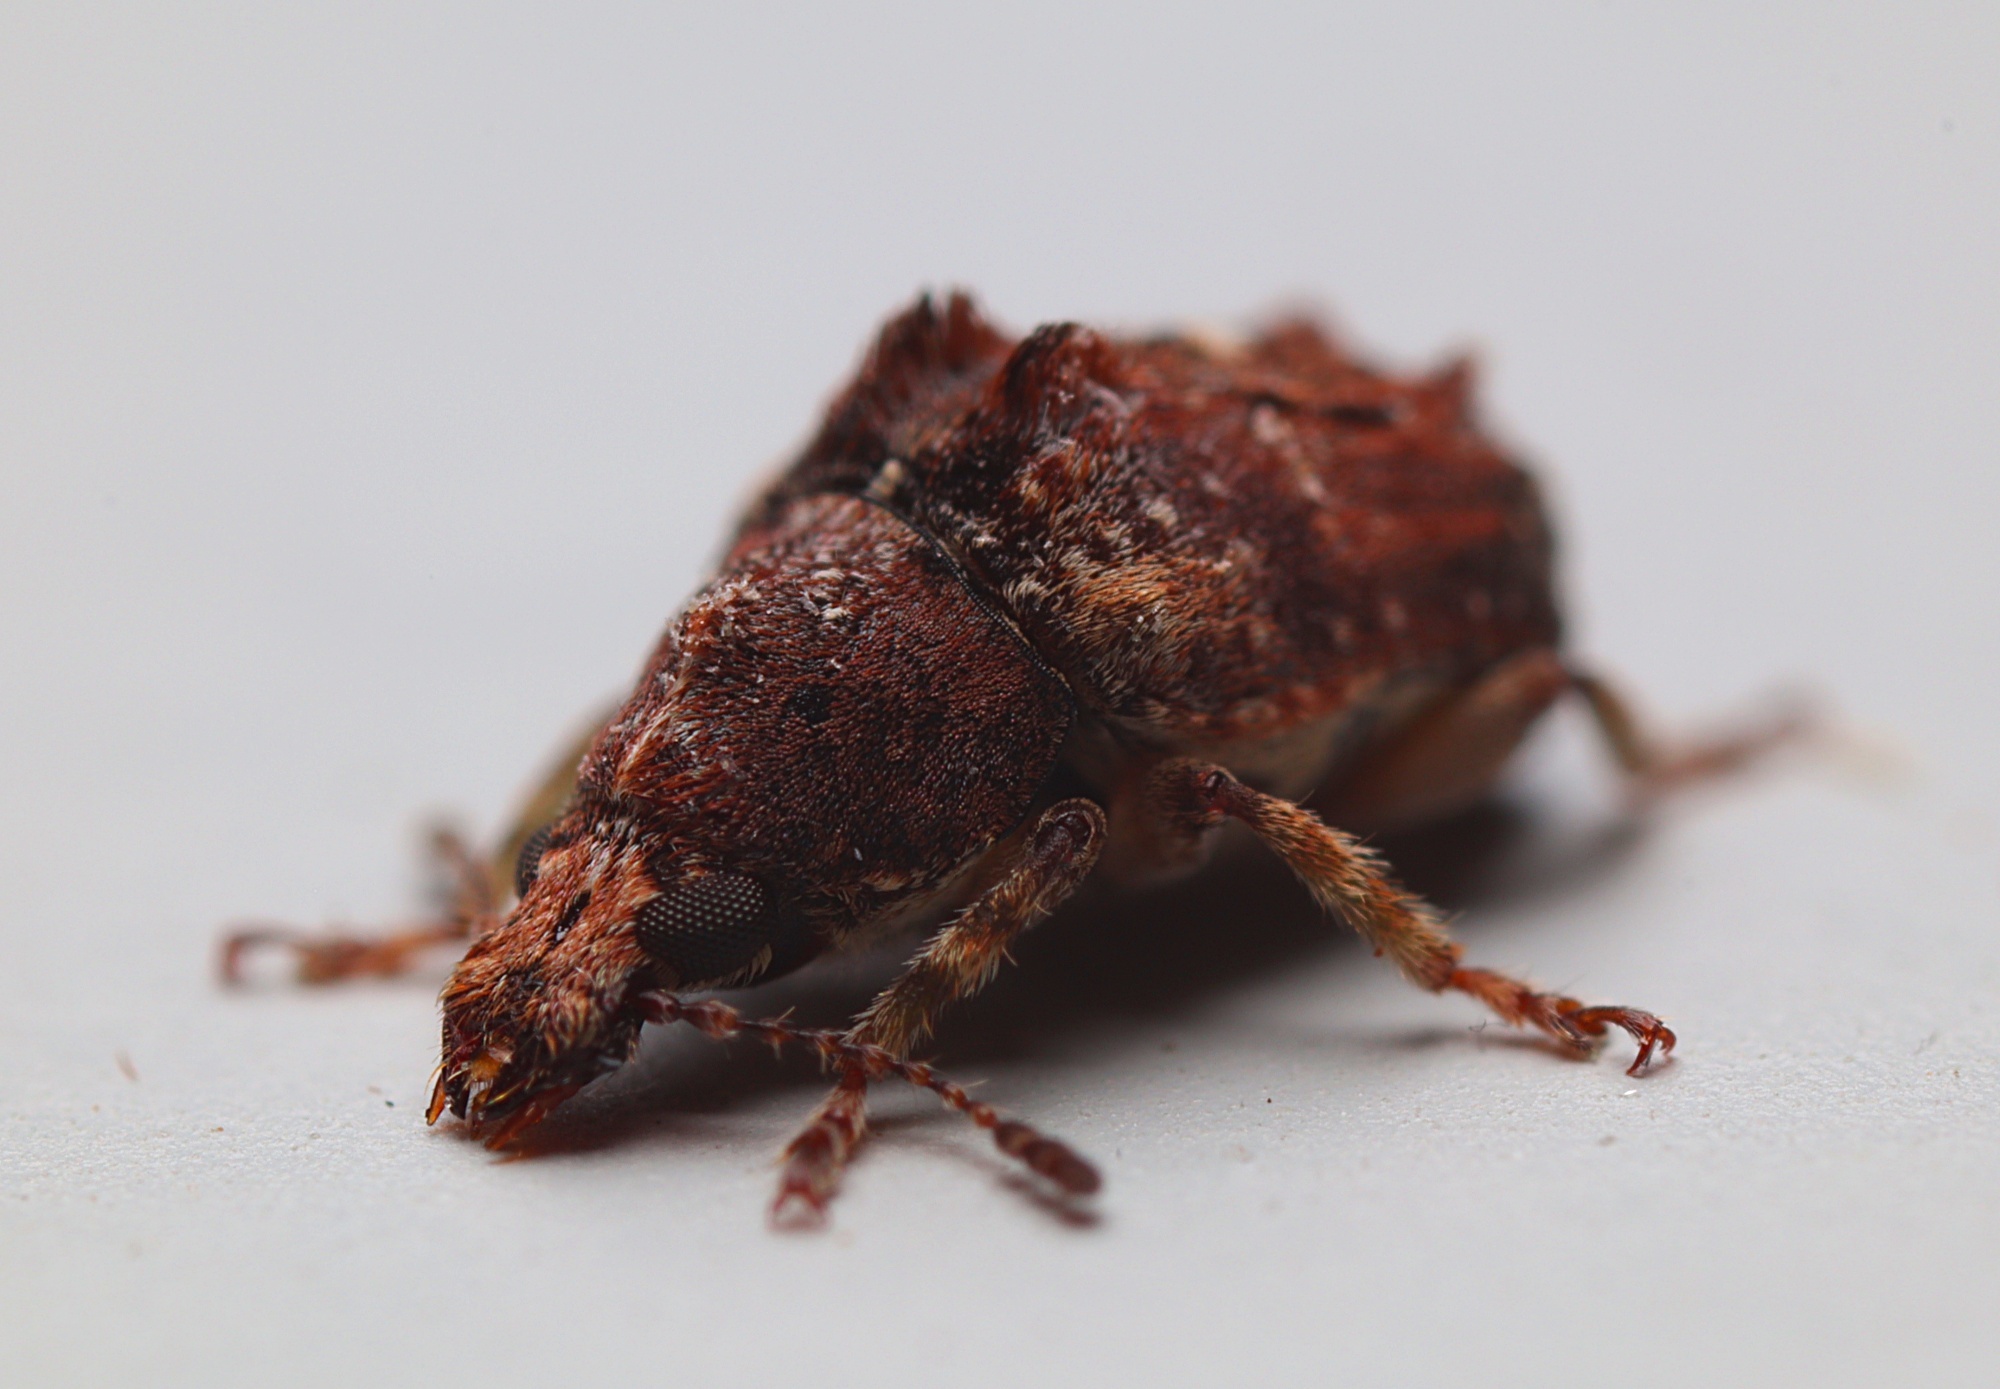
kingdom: Animalia
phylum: Arthropoda
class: Insecta
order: Coleoptera
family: Anthribidae
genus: Garyus
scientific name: Garyus altus
